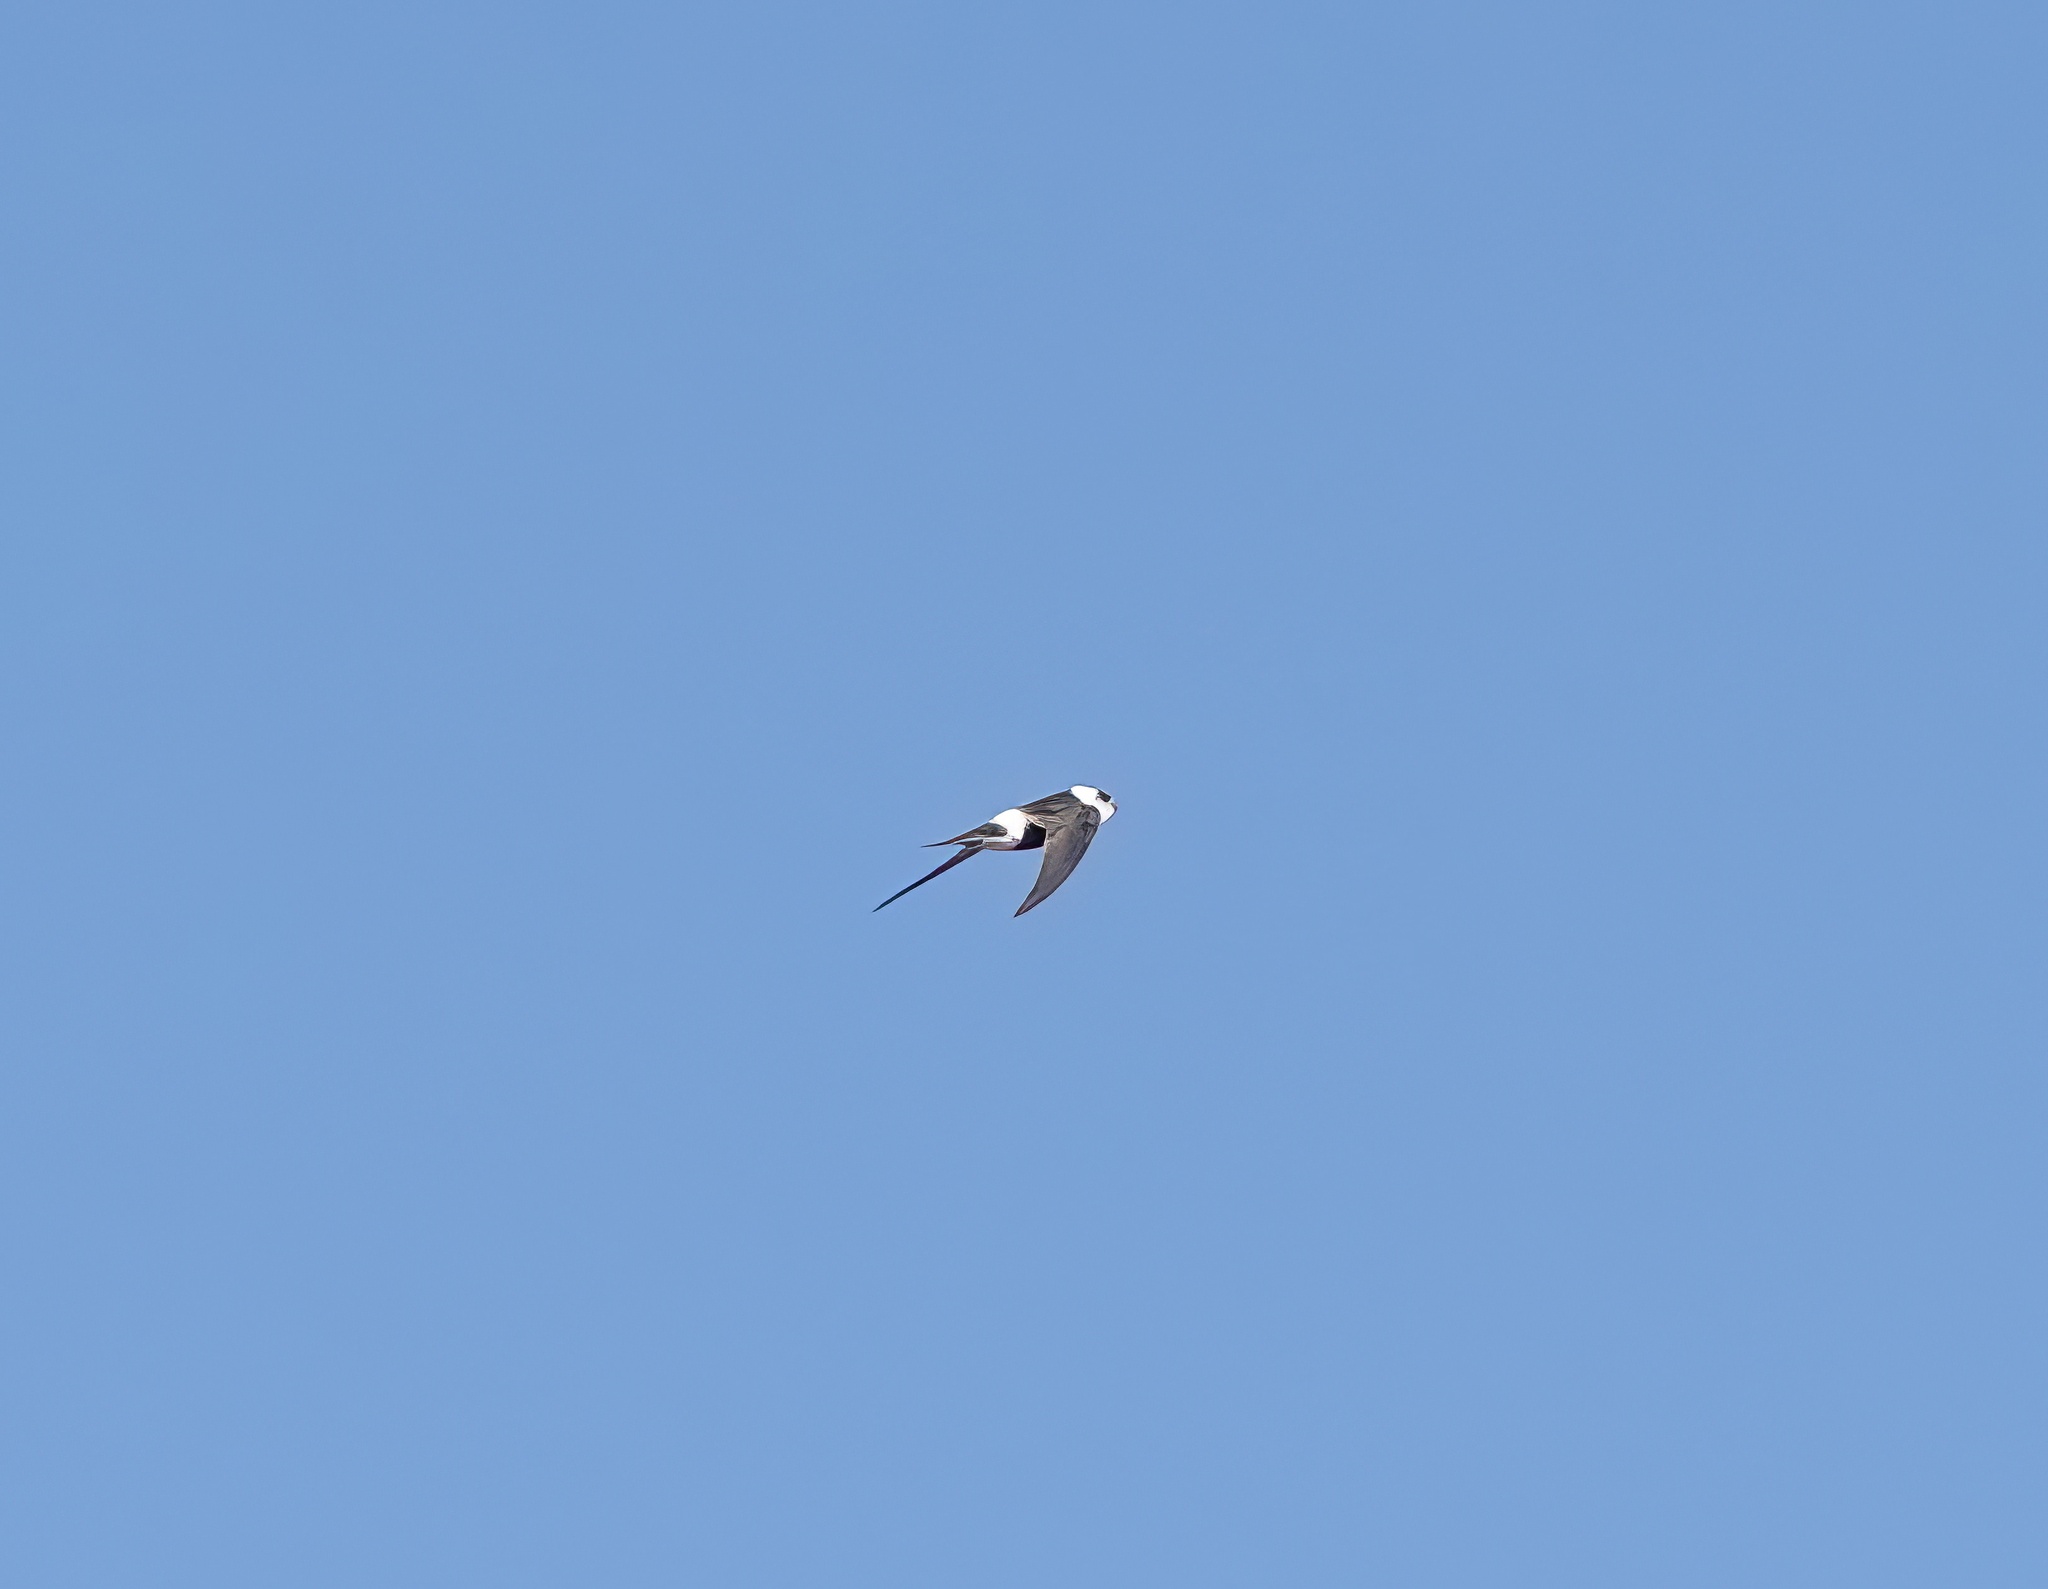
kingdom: Animalia
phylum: Chordata
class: Aves
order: Apodiformes
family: Apodidae
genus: Aeronautes
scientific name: Aeronautes andecolus
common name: Andean swift
